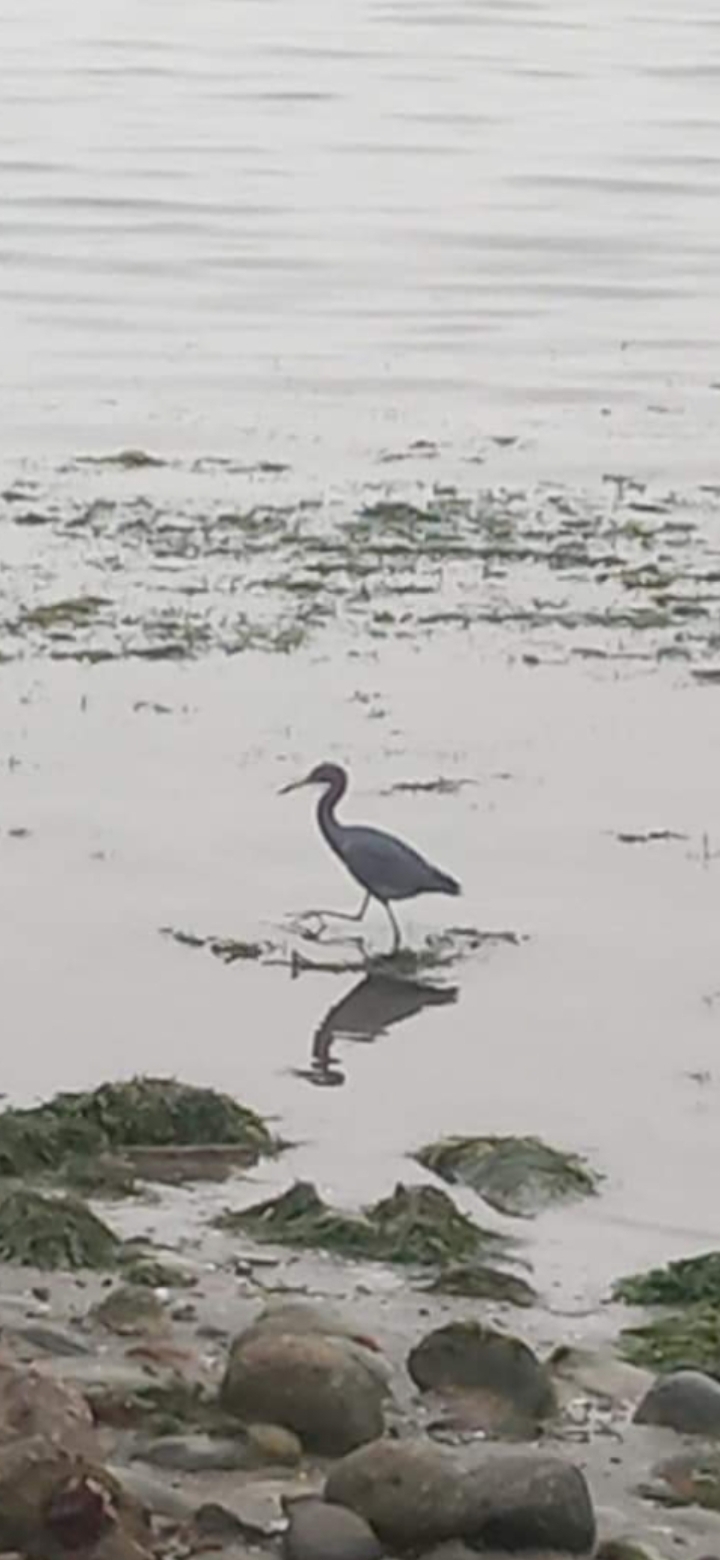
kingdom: Animalia
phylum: Chordata
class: Aves
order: Pelecaniformes
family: Ardeidae
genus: Egretta
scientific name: Egretta caerulea
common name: Little blue heron
